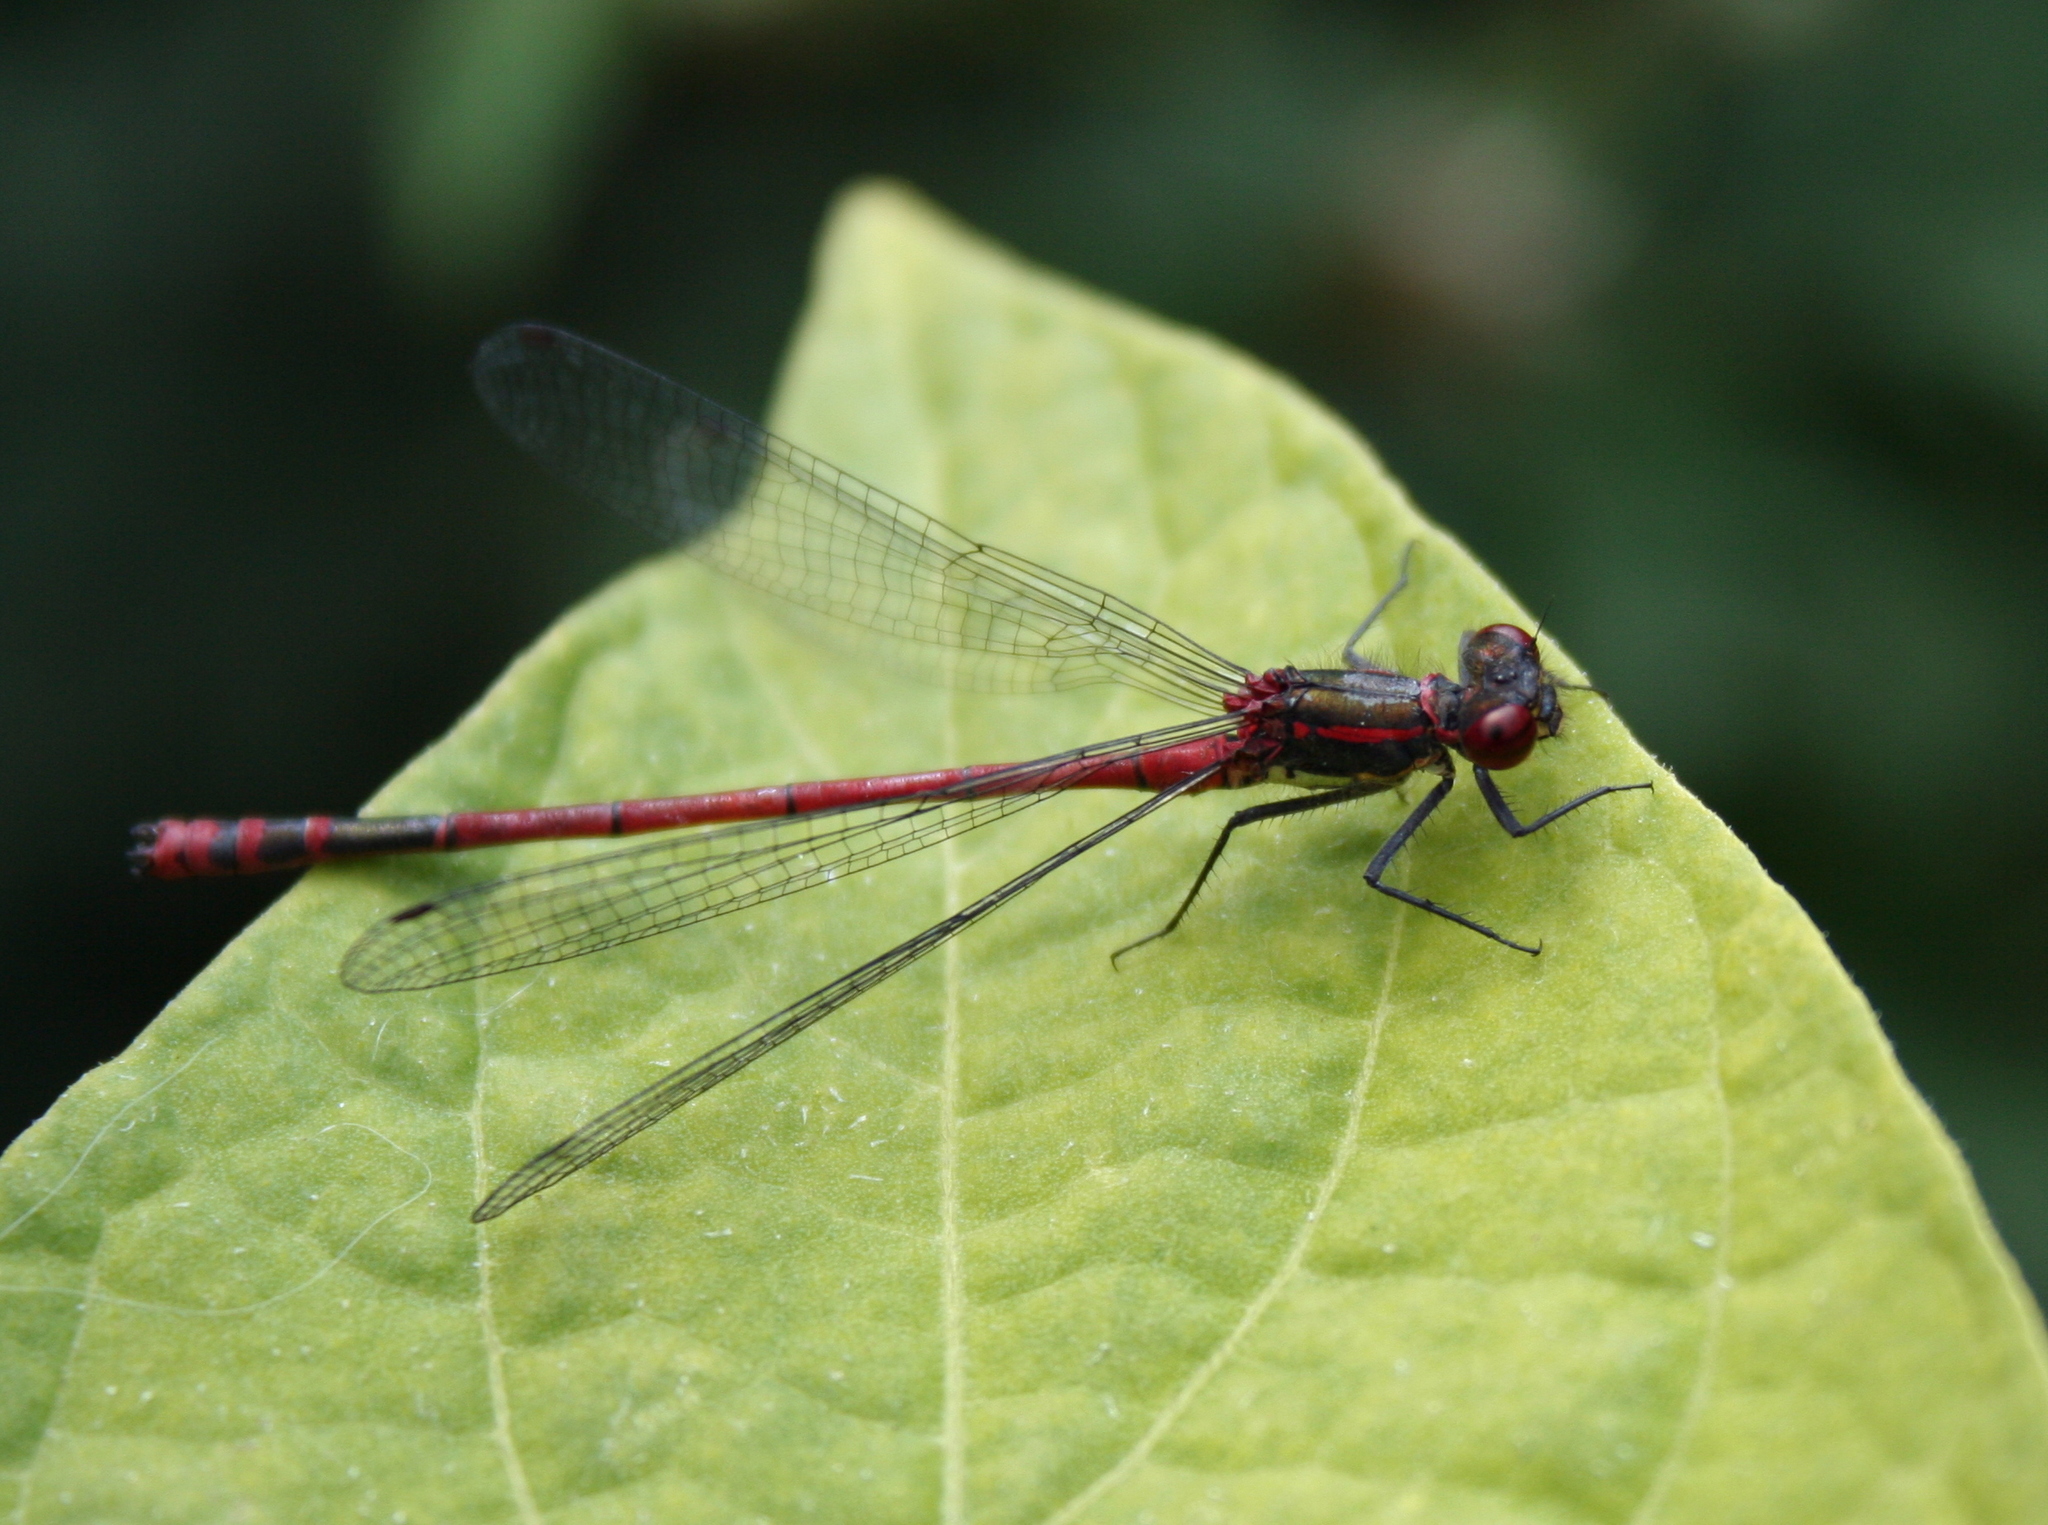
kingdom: Animalia
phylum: Arthropoda
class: Insecta
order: Odonata
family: Coenagrionidae
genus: Pyrrhosoma
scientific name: Pyrrhosoma nymphula
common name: Large red damsel
